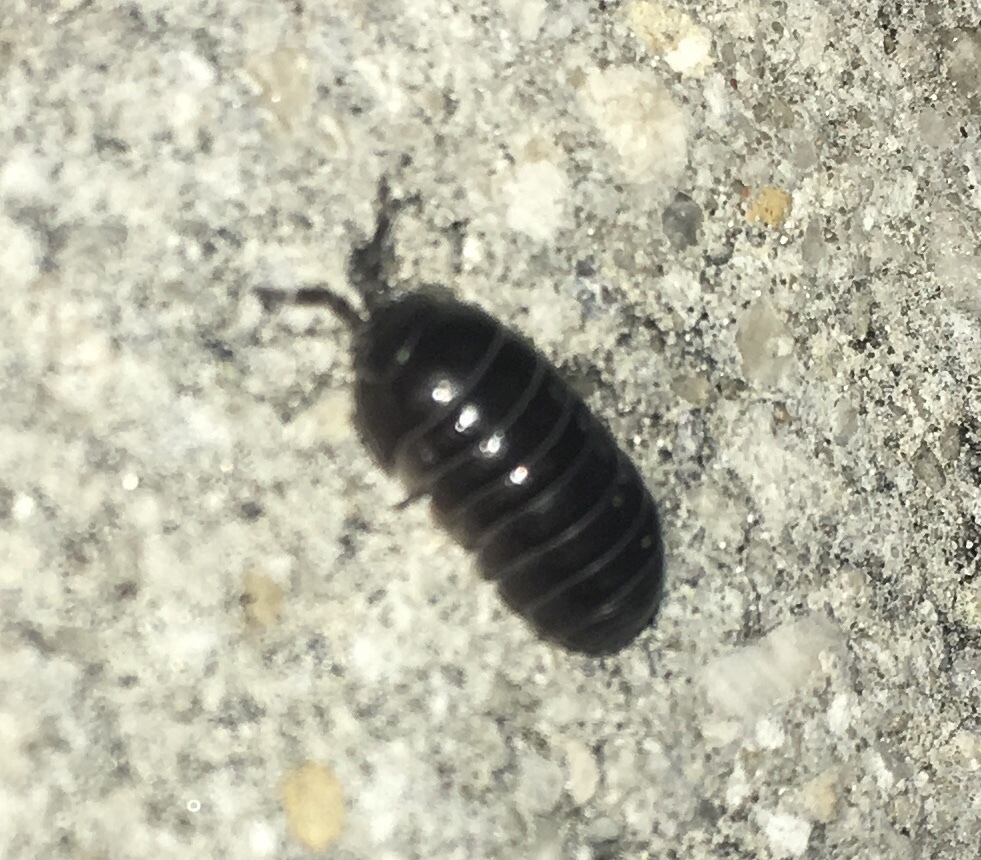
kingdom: Animalia
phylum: Arthropoda
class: Malacostraca
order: Isopoda
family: Armadillidiidae
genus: Armadillidium
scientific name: Armadillidium vulgare
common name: Common pill woodlouse
